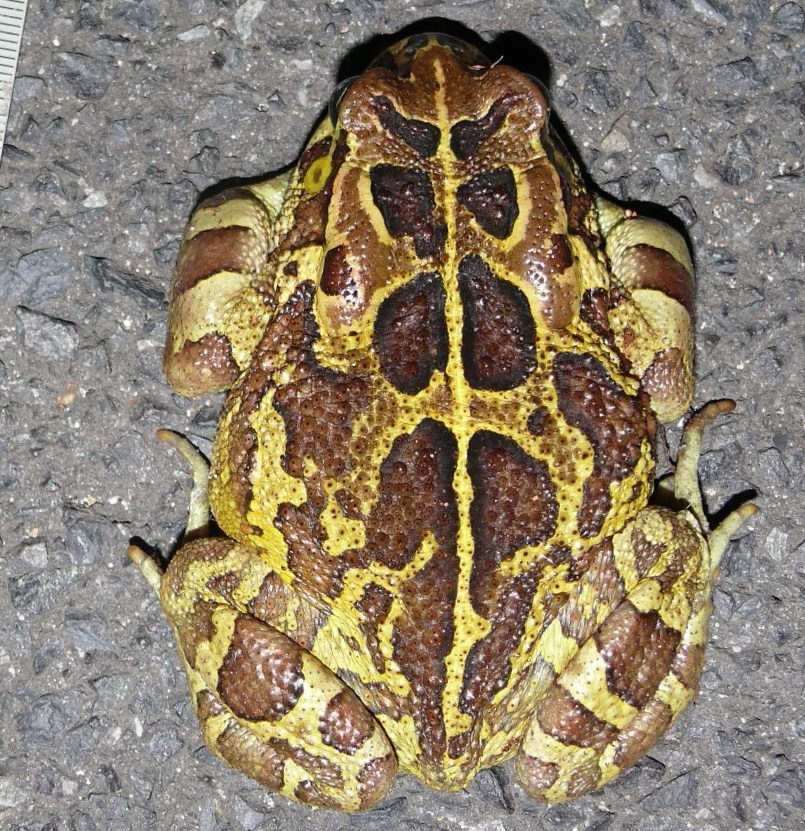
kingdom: Animalia
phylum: Chordata
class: Amphibia
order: Anura
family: Bufonidae
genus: Sclerophrys
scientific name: Sclerophrys pantherina
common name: Panther toad
